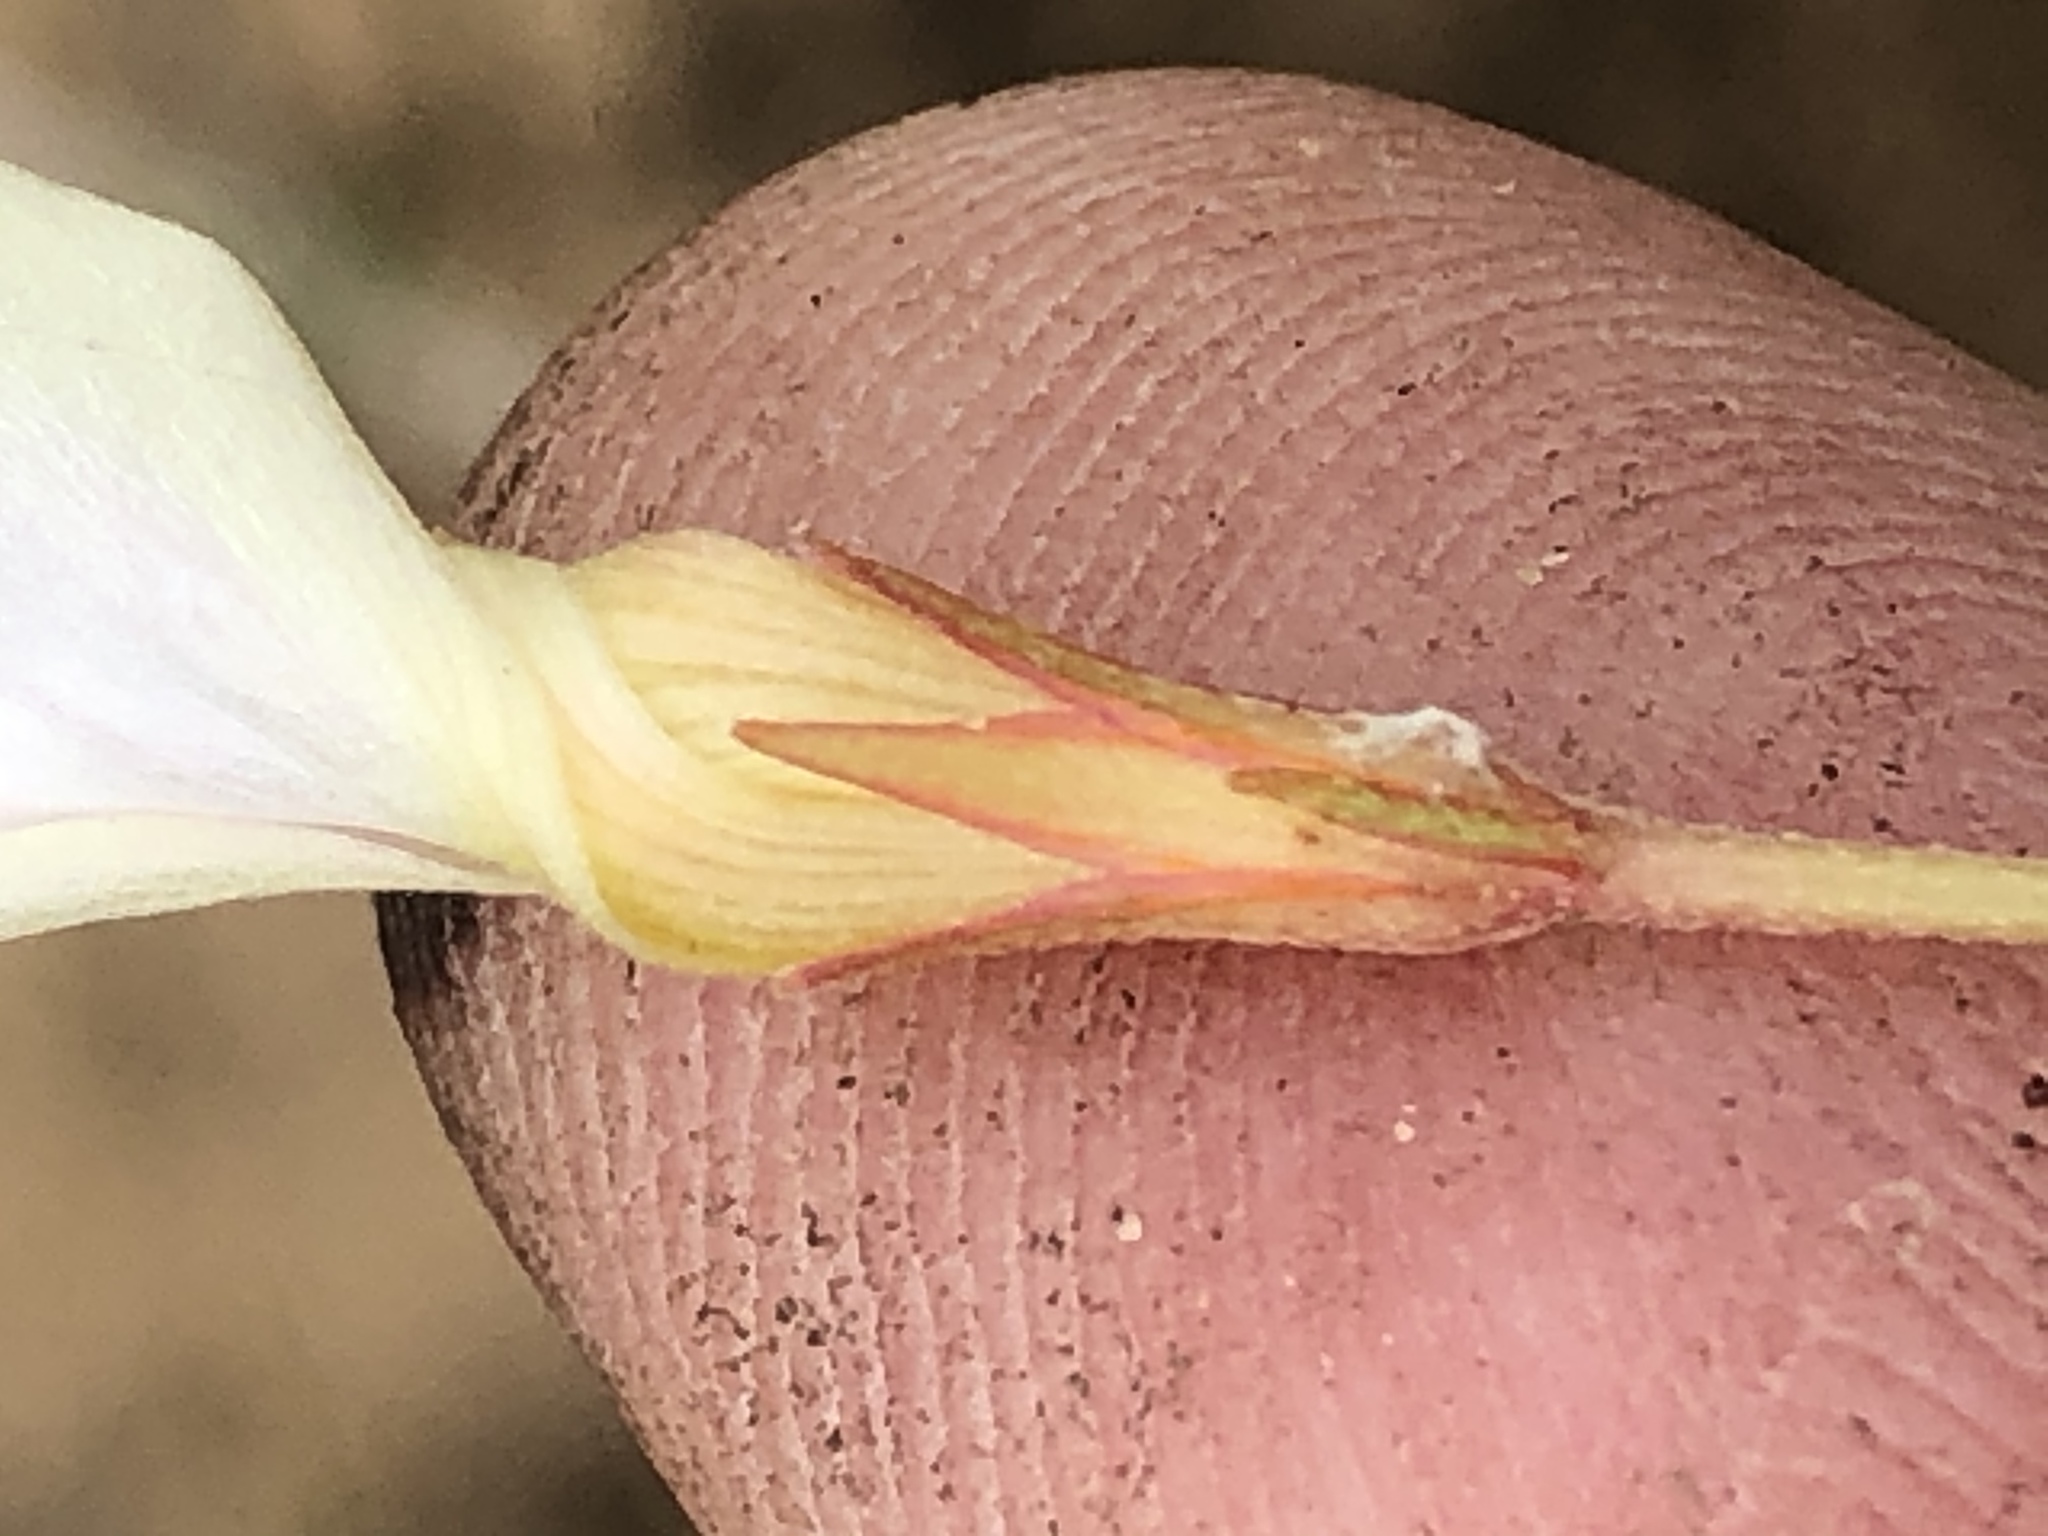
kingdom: Plantae
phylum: Tracheophyta
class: Magnoliopsida
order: Oxalidales
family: Oxalidaceae
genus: Oxalis
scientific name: Oxalis ciliaris
